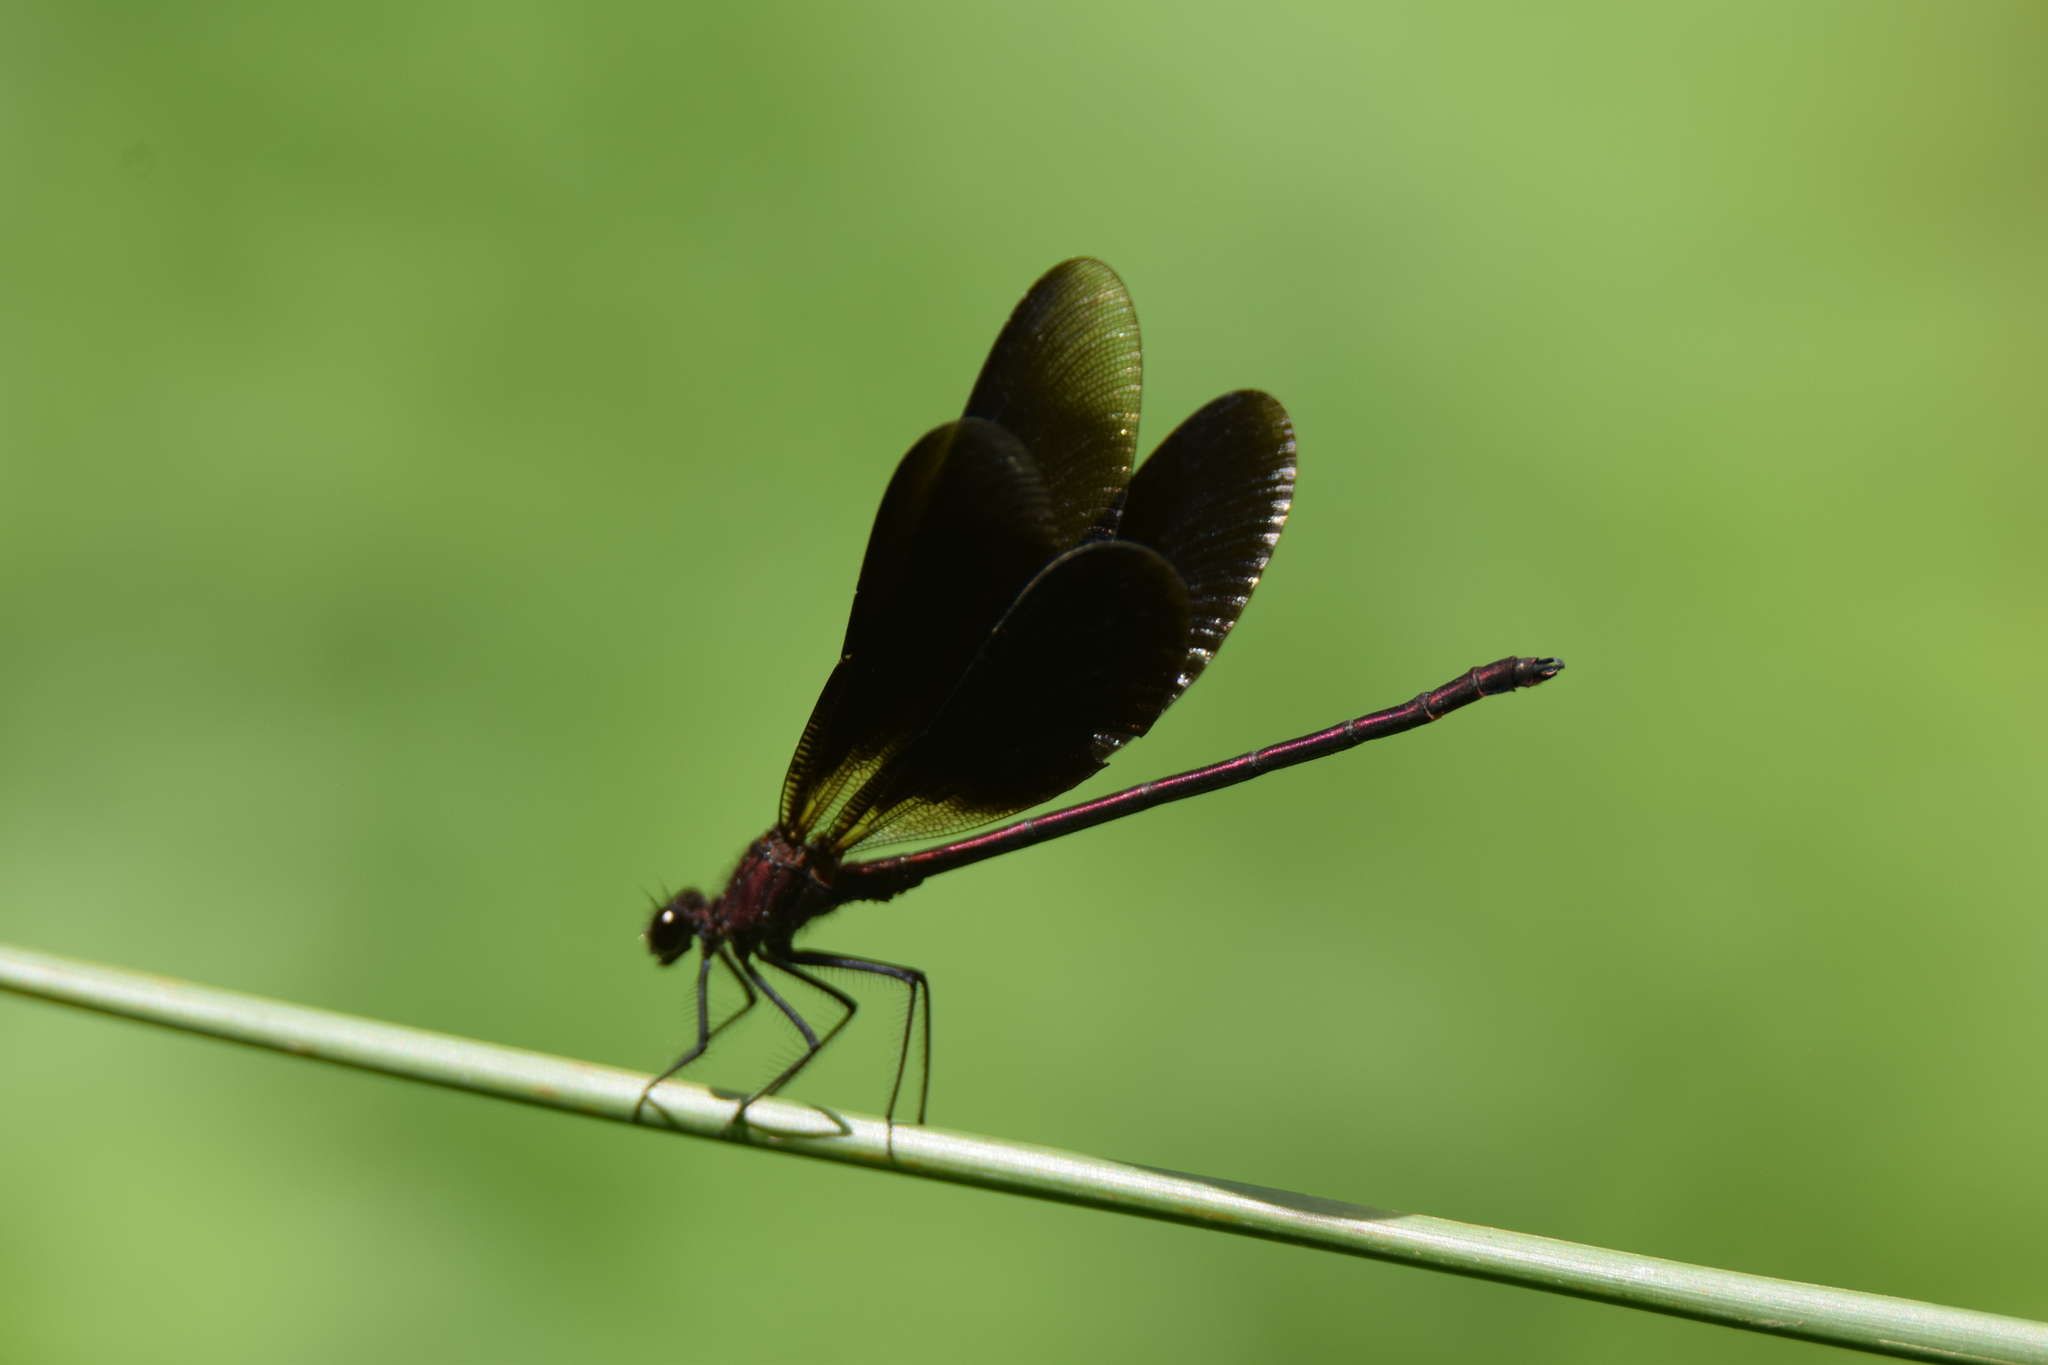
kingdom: Animalia
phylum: Arthropoda
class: Insecta
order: Odonata
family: Calopterygidae
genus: Calopteryx
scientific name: Calopteryx haemorrhoidalis
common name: Copper demoiselle
